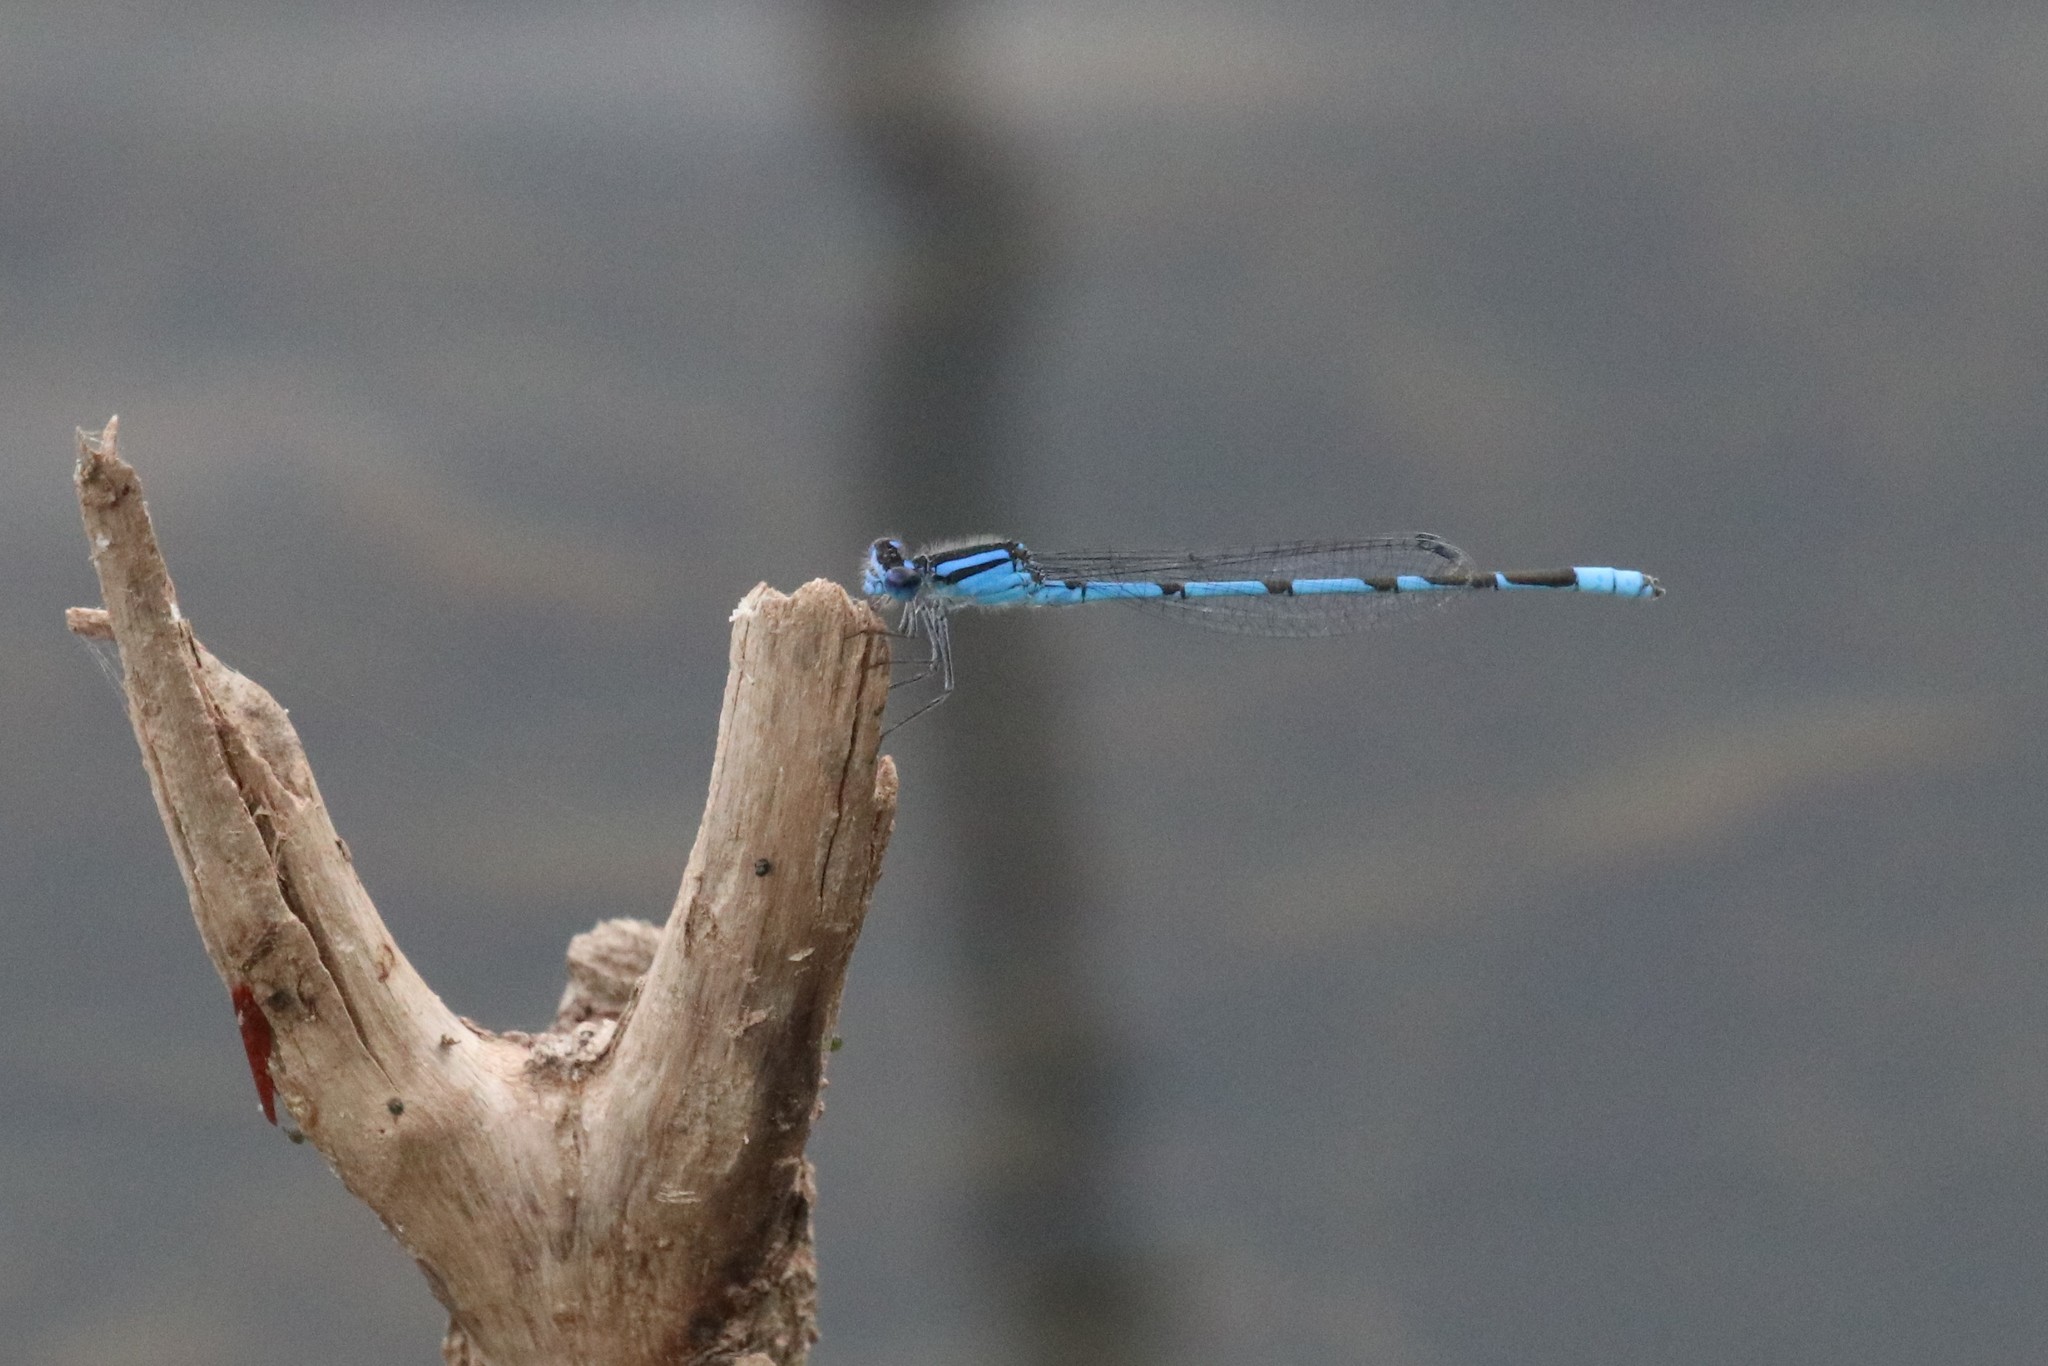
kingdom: Animalia
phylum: Arthropoda
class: Insecta
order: Odonata
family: Coenagrionidae
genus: Enallagma
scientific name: Enallagma civile
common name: Damselfly
